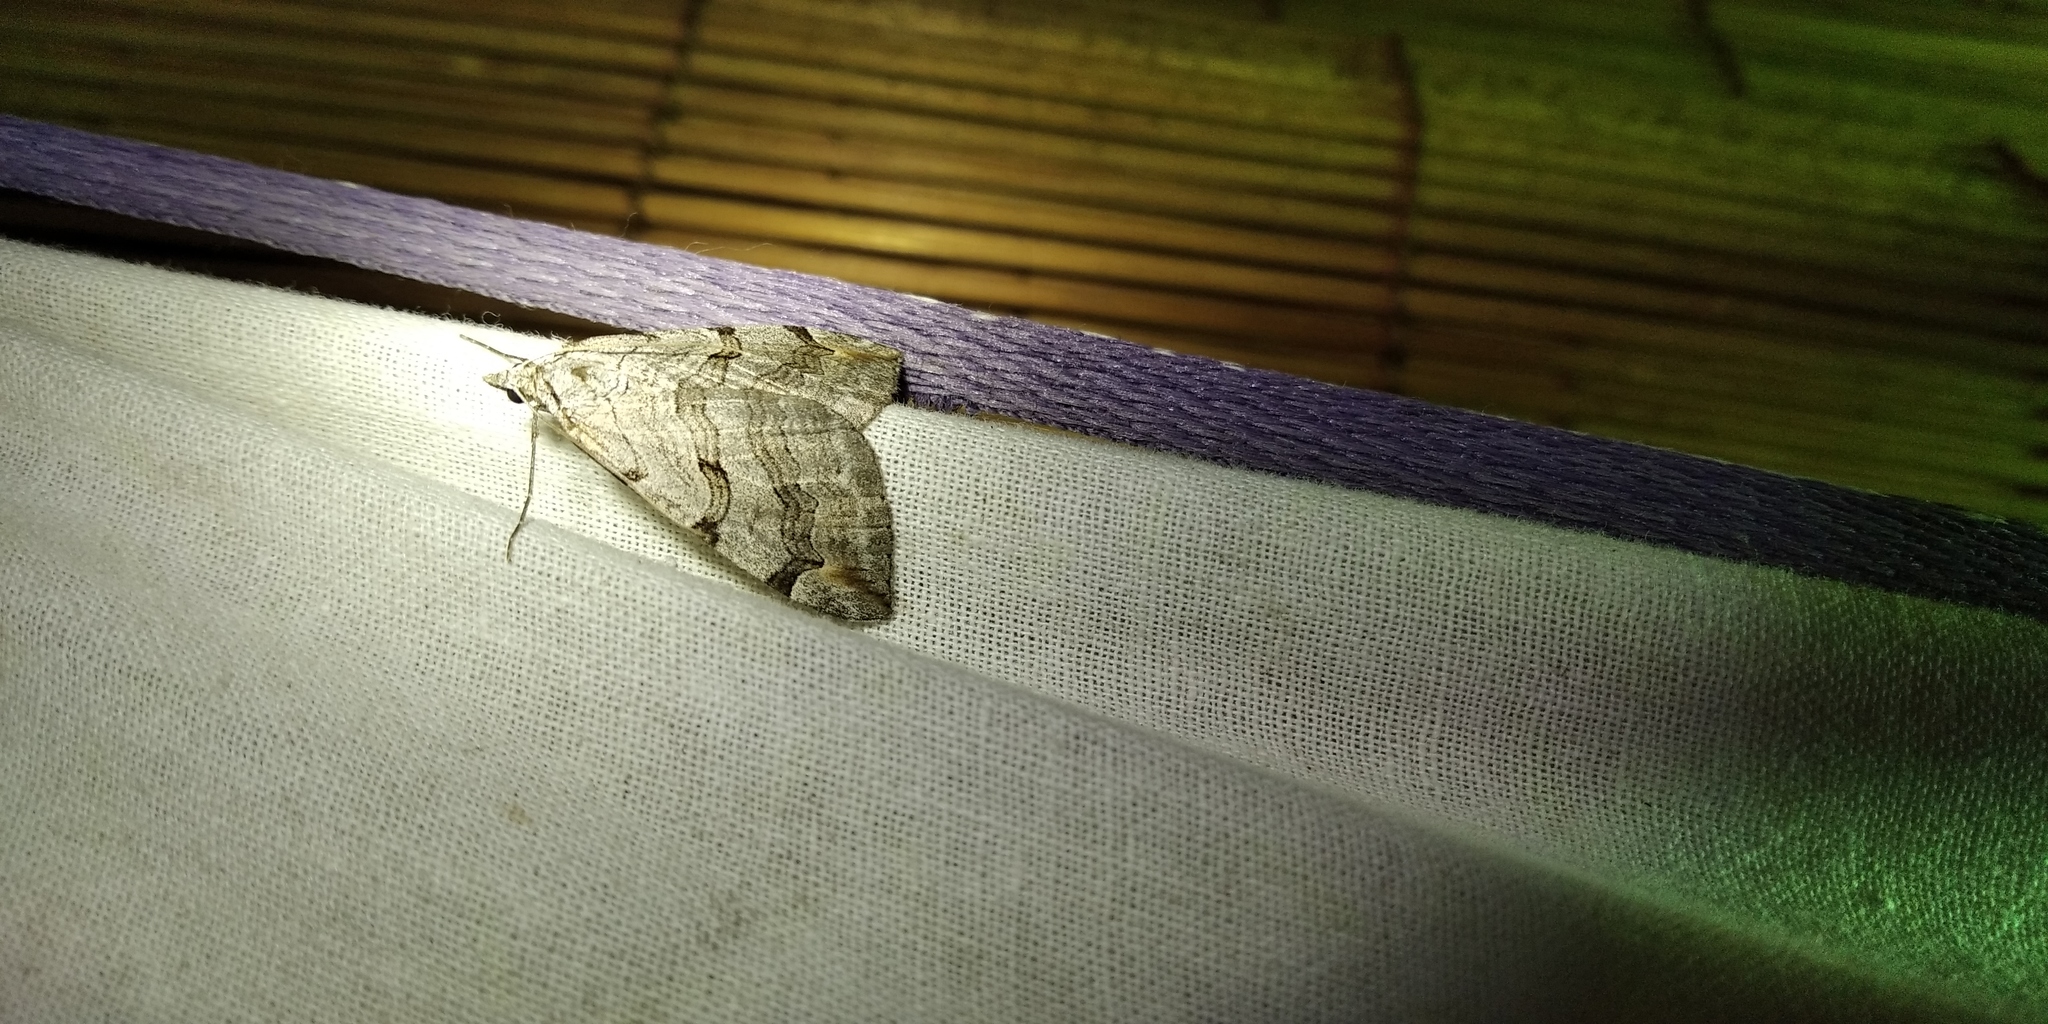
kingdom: Animalia
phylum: Arthropoda
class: Insecta
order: Lepidoptera
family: Geometridae
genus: Aplocera
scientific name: Aplocera plagiata
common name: Treble-bar
